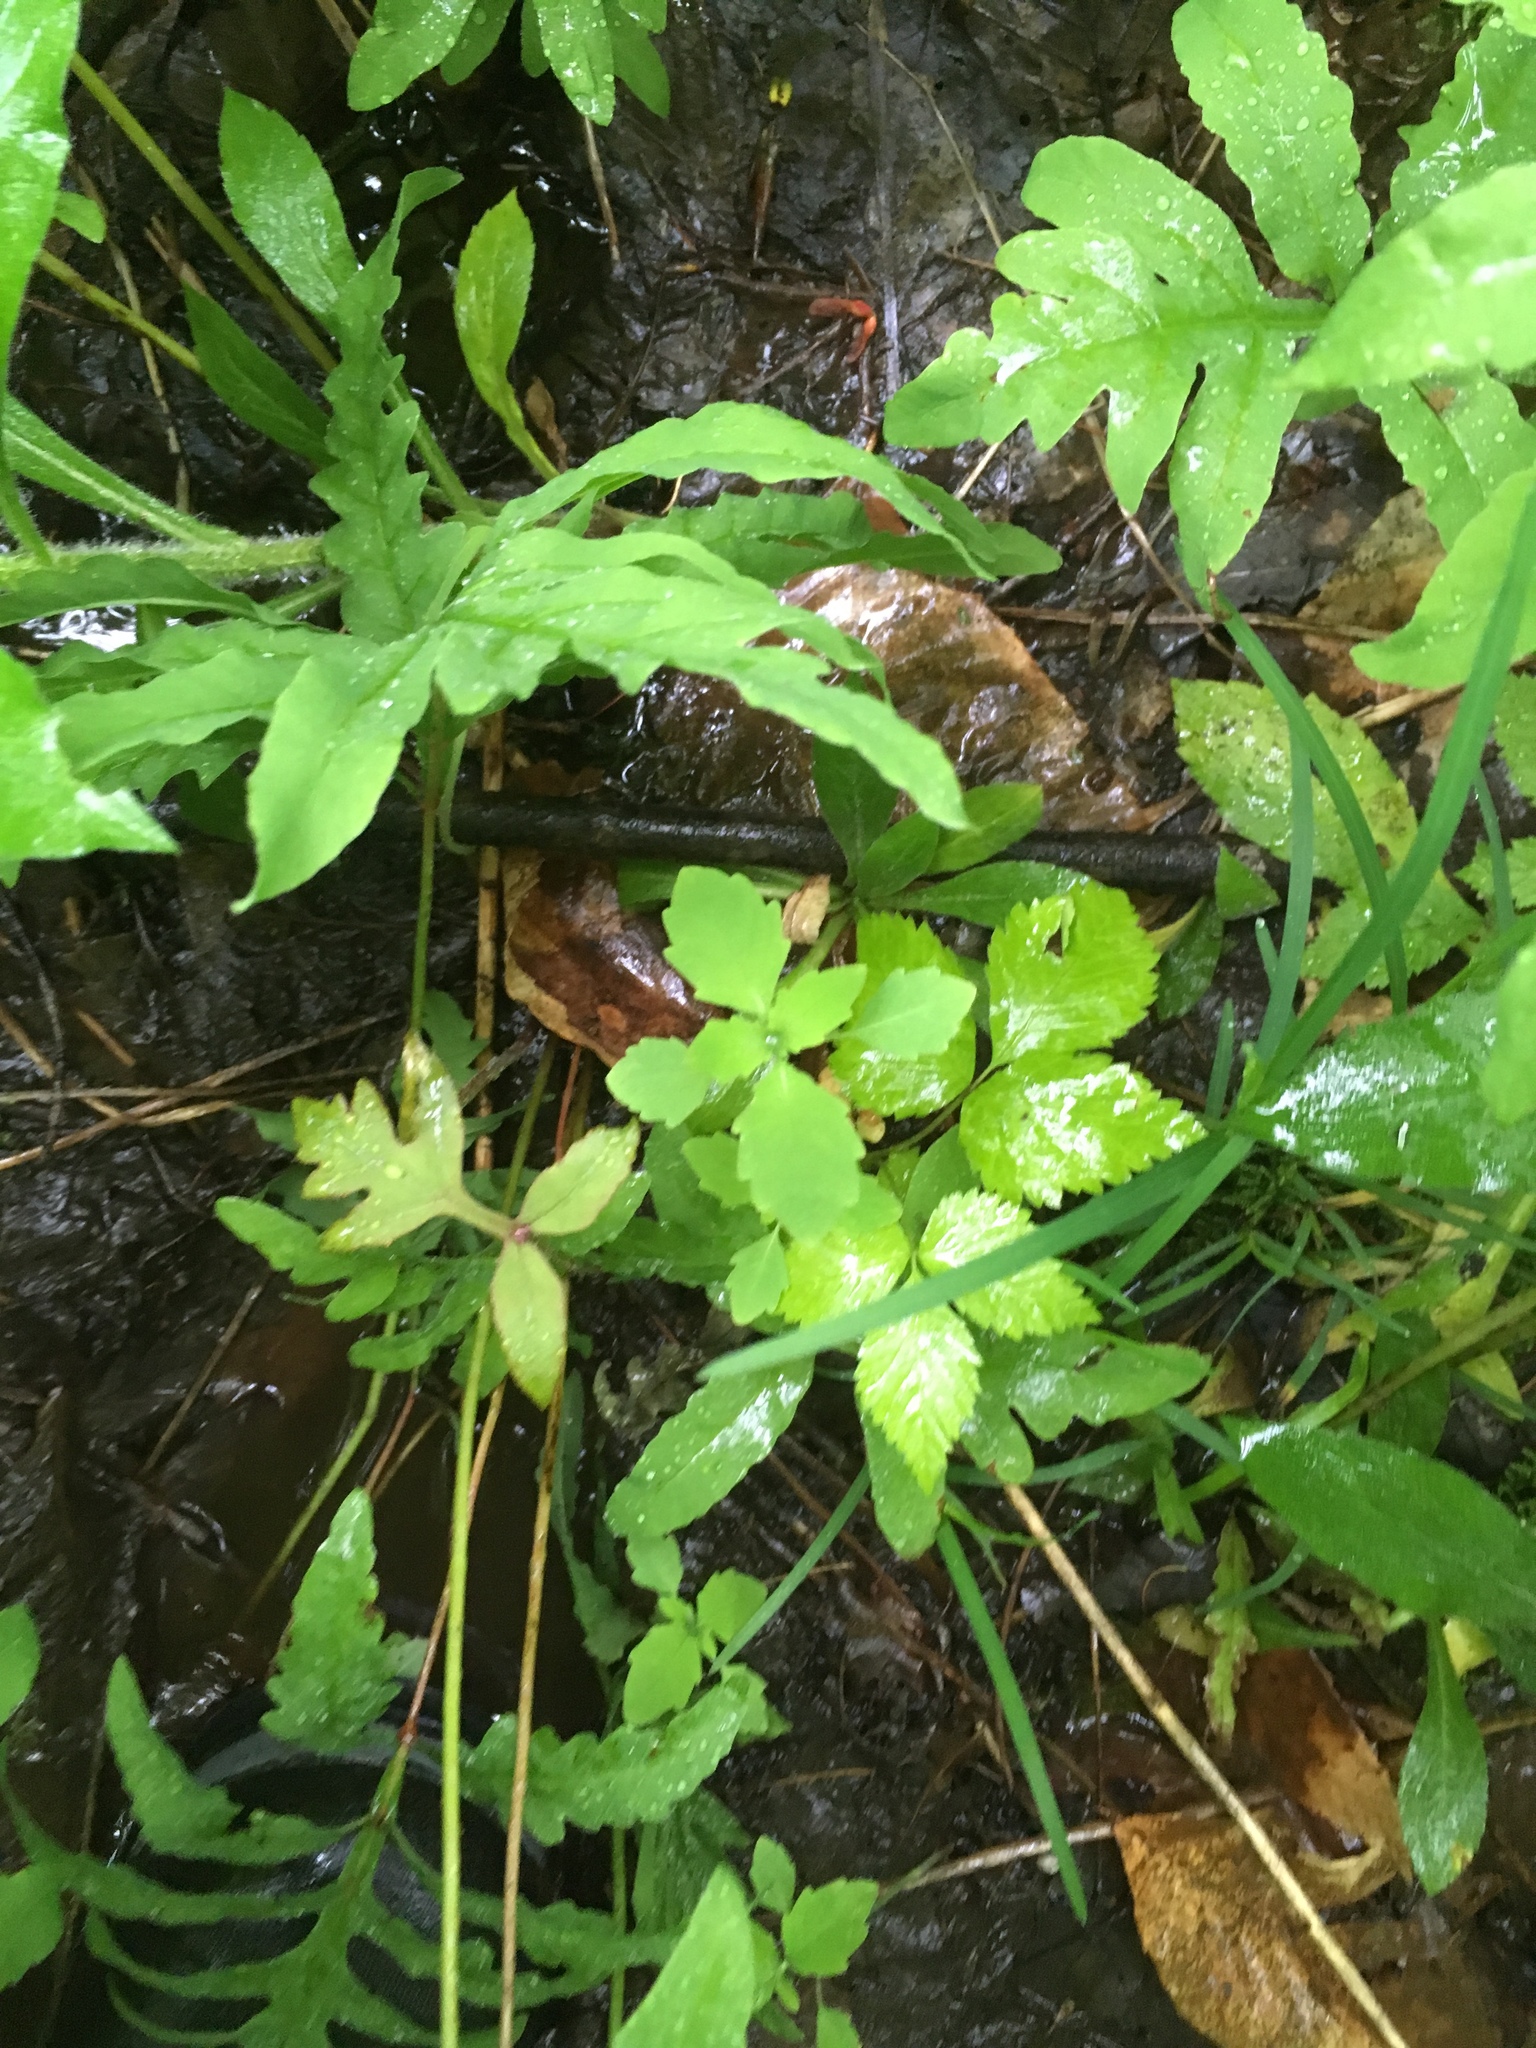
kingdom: Plantae
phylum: Tracheophyta
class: Magnoliopsida
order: Ericales
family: Balsaminaceae
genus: Impatiens
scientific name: Impatiens capensis
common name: Orange balsam
